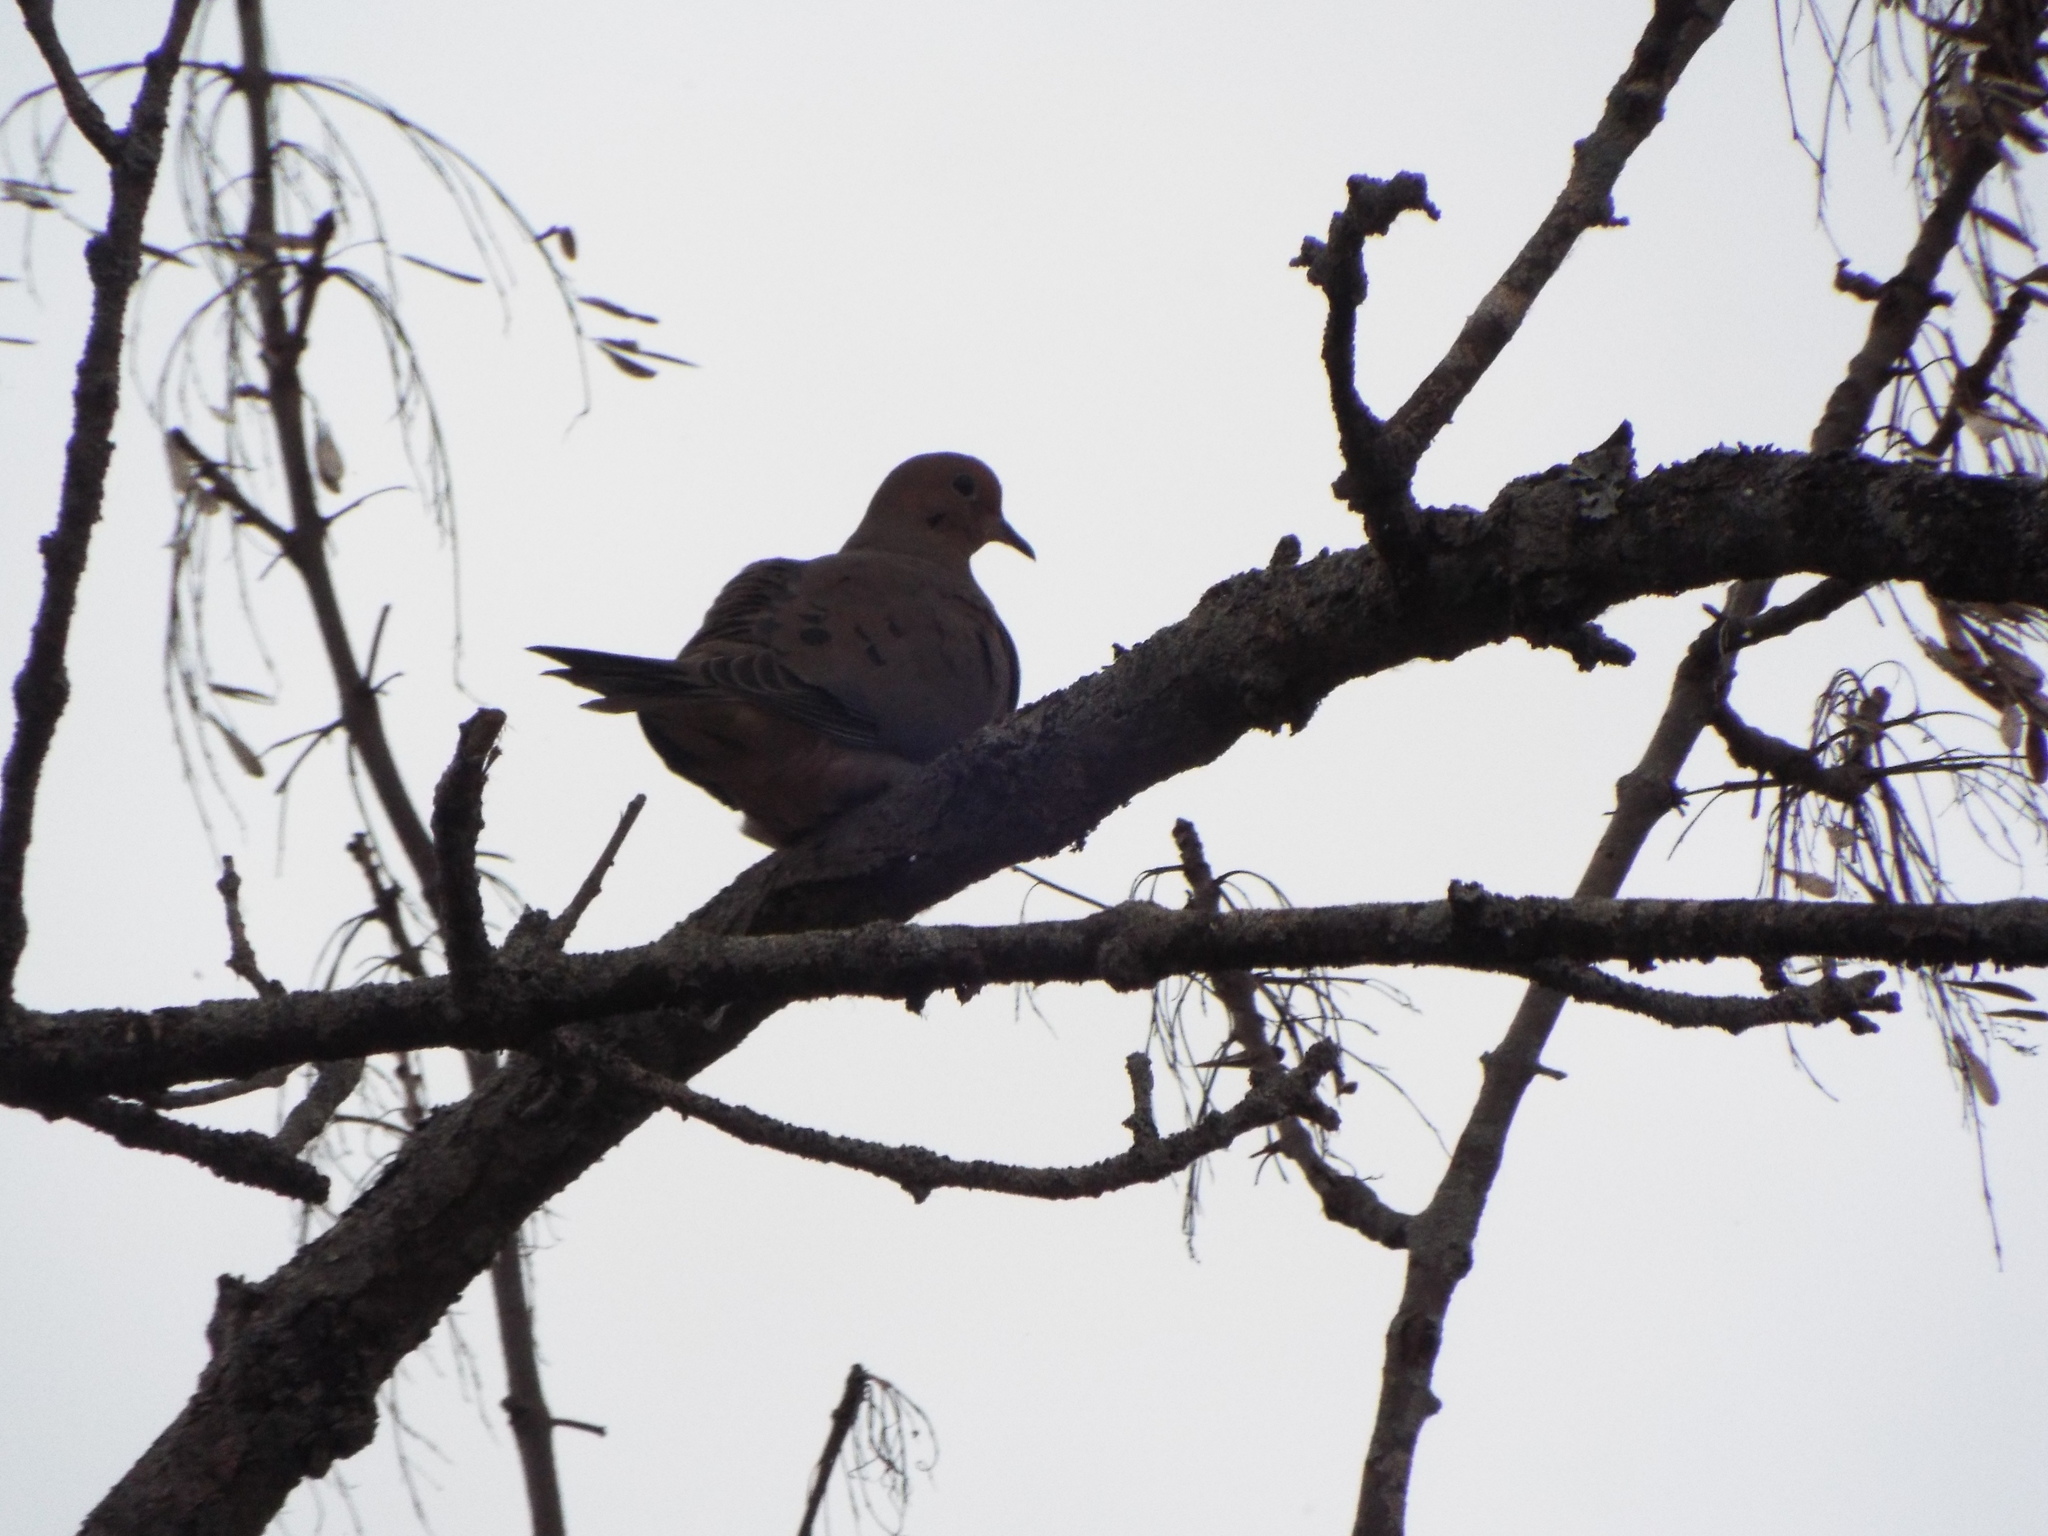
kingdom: Animalia
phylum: Chordata
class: Aves
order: Columbiformes
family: Columbidae
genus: Zenaida
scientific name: Zenaida macroura
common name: Mourning dove
